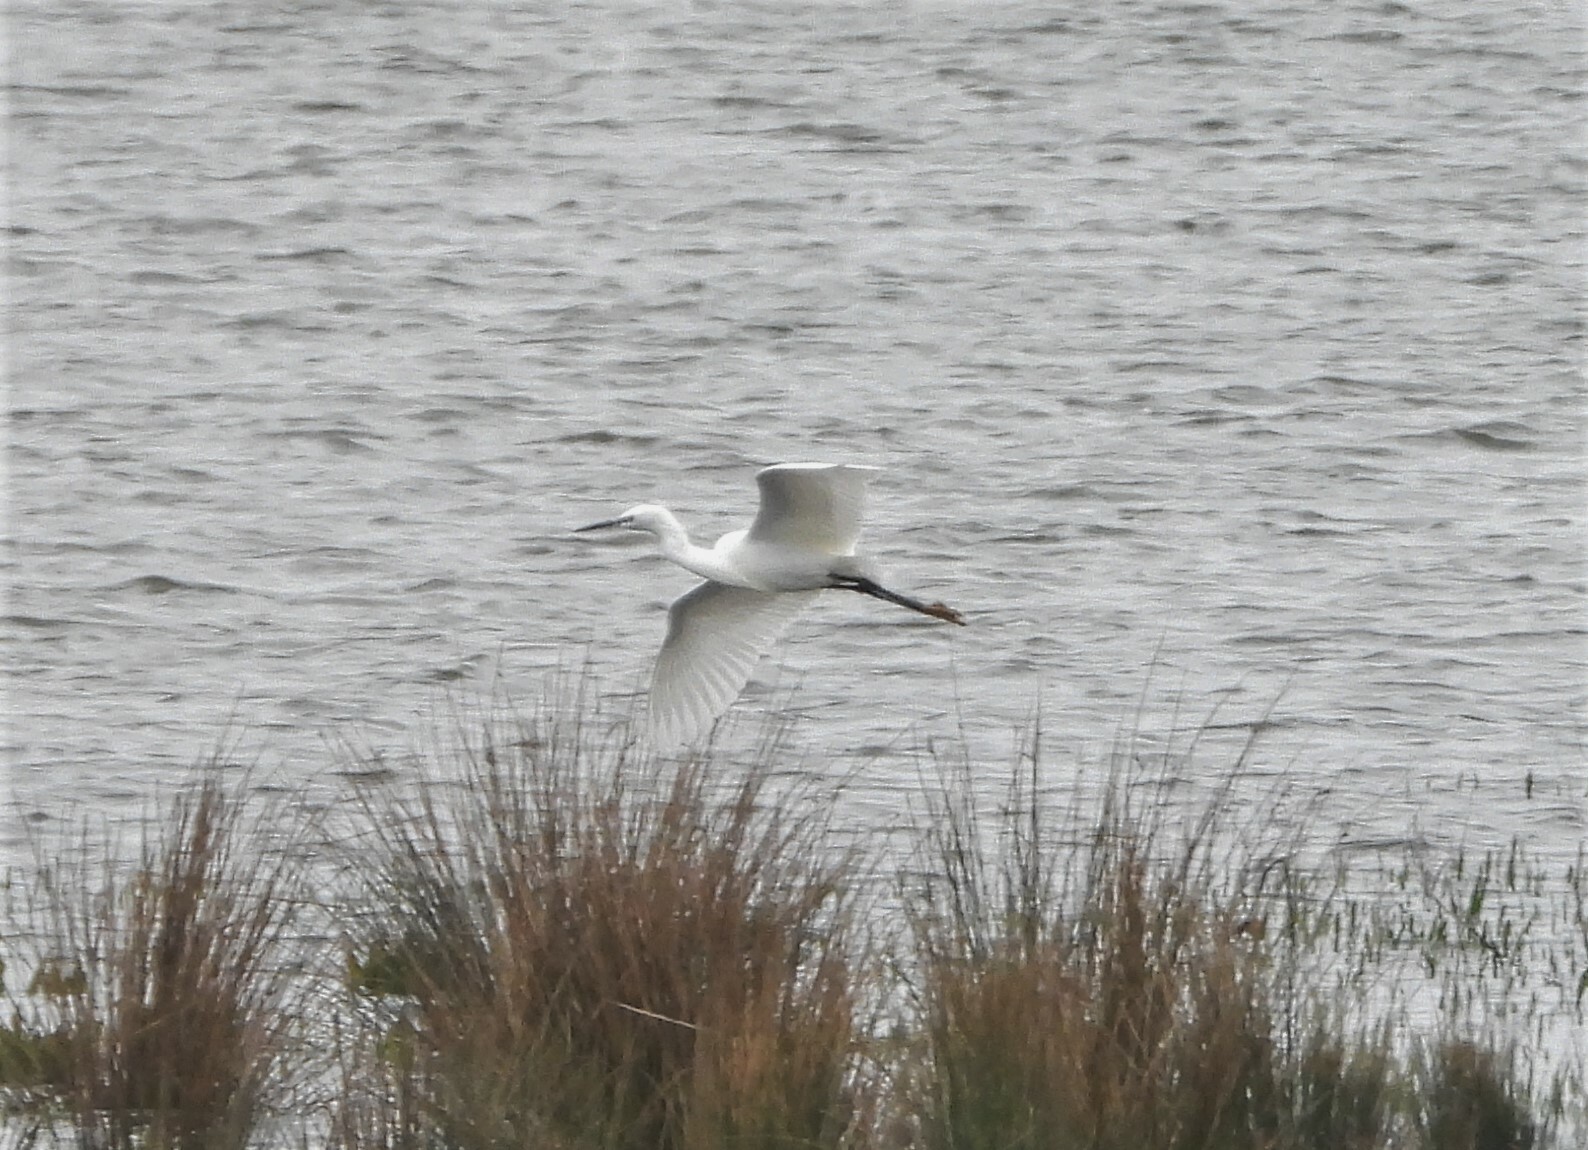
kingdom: Animalia
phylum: Chordata
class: Aves
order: Pelecaniformes
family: Ardeidae
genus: Egretta
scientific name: Egretta garzetta
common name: Little egret
